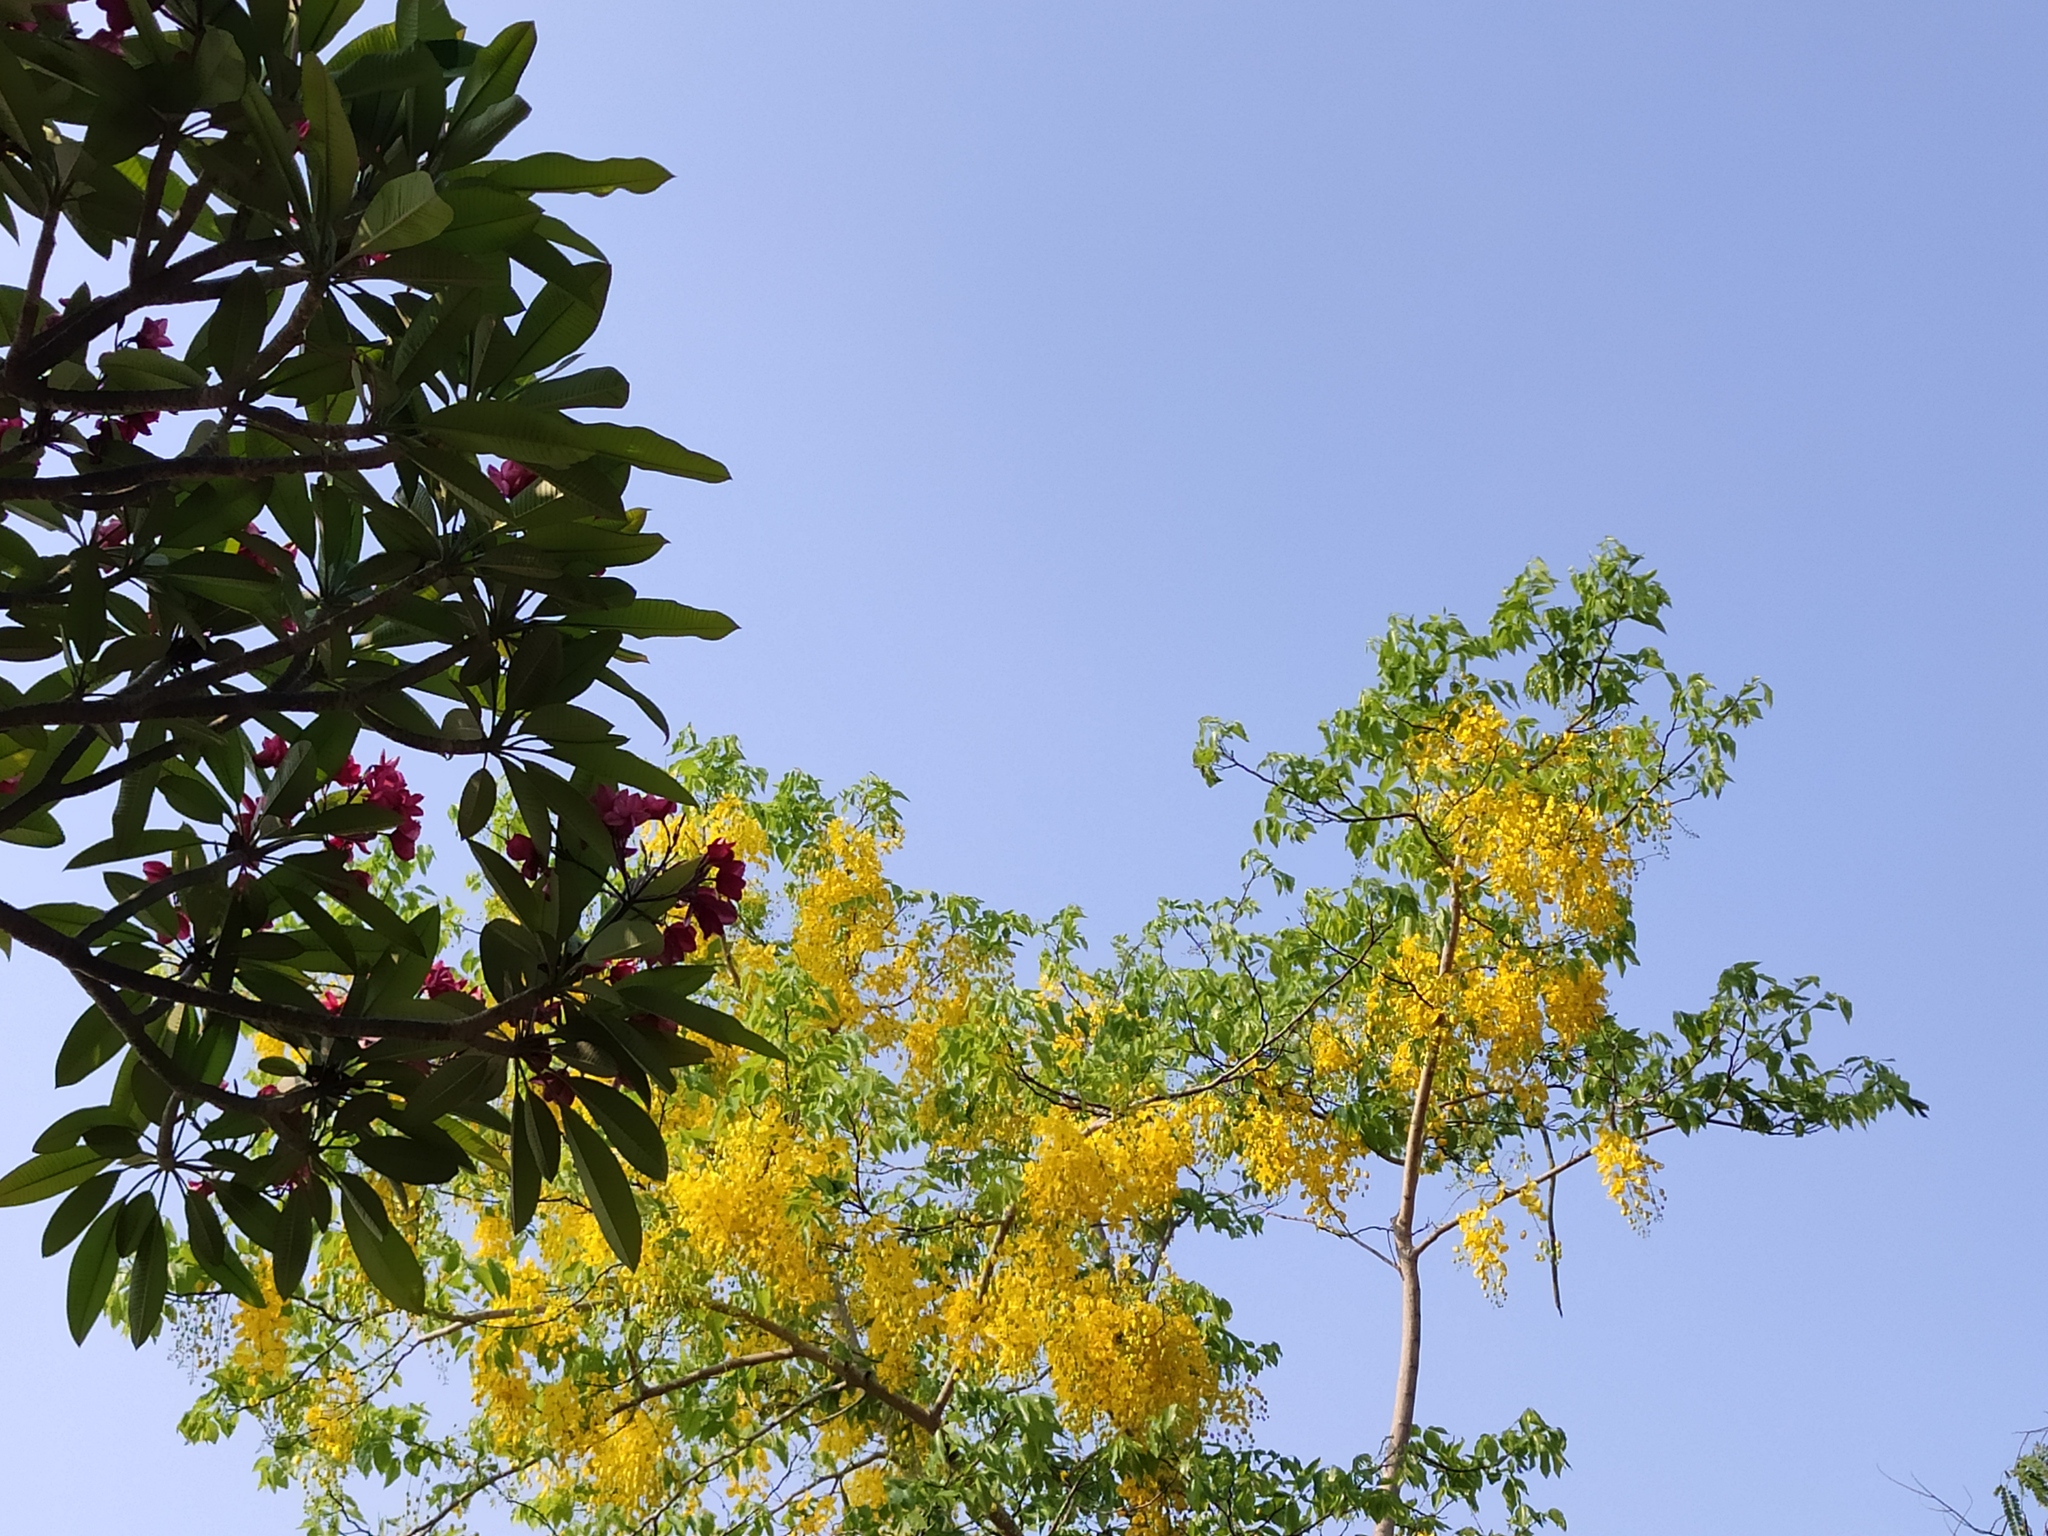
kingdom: Plantae
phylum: Tracheophyta
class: Magnoliopsida
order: Fabales
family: Fabaceae
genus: Cassia
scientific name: Cassia fistula
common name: Golden shower
